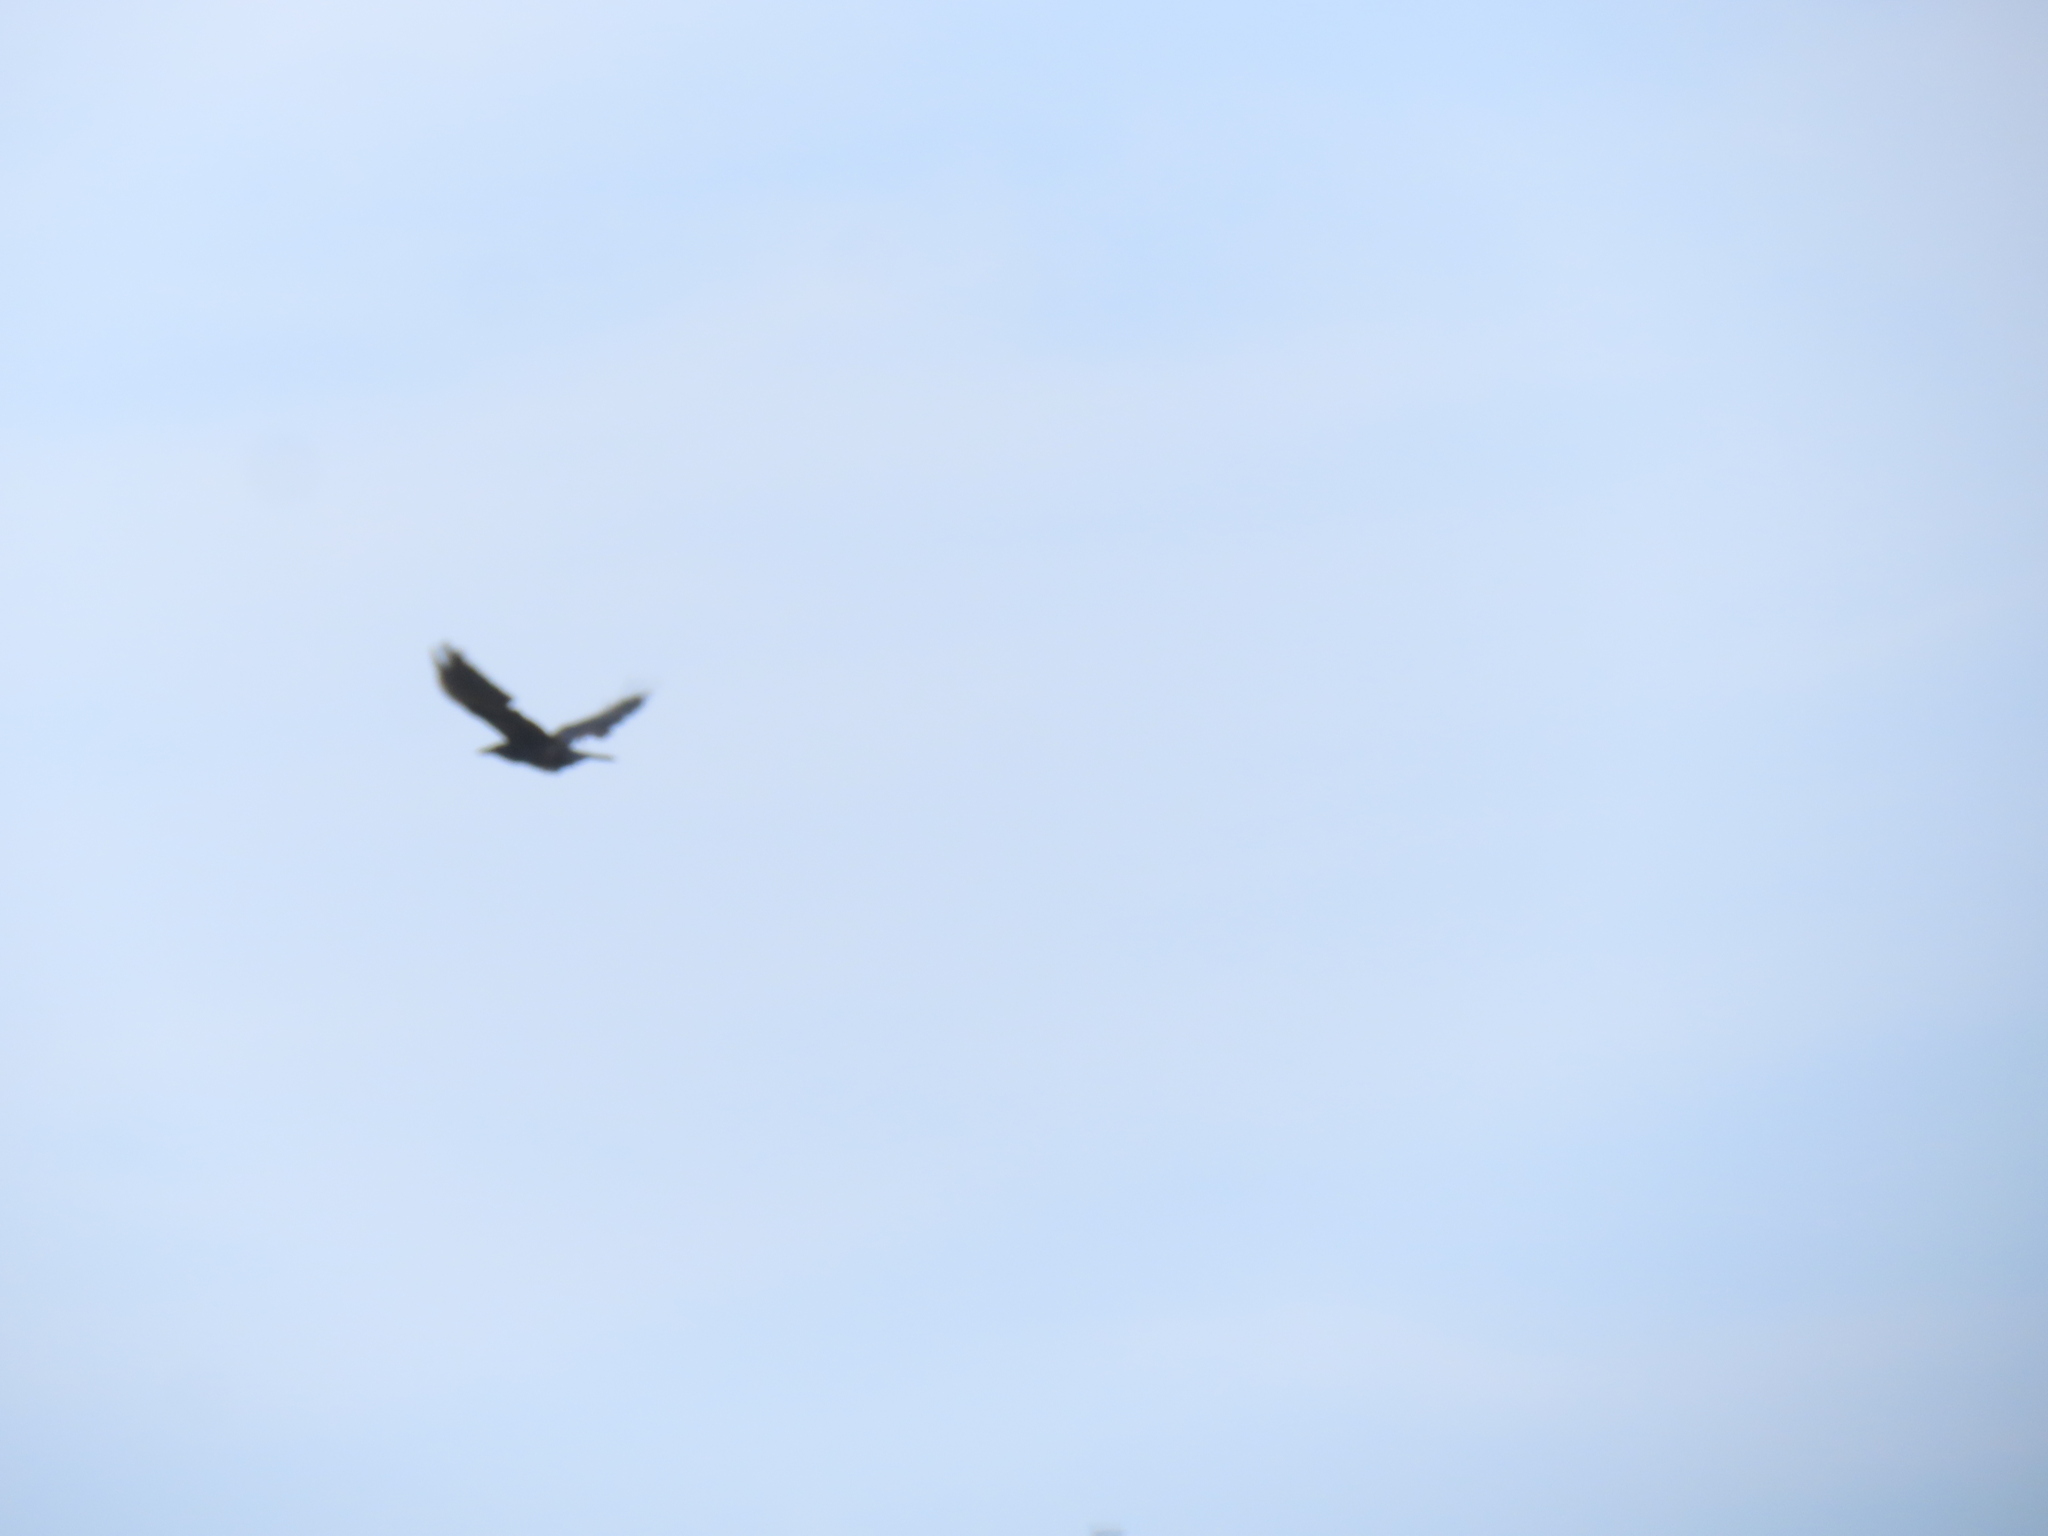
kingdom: Animalia
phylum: Chordata
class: Aves
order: Passeriformes
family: Corvidae
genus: Corvus
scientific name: Corvus brachyrhynchos
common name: American crow
